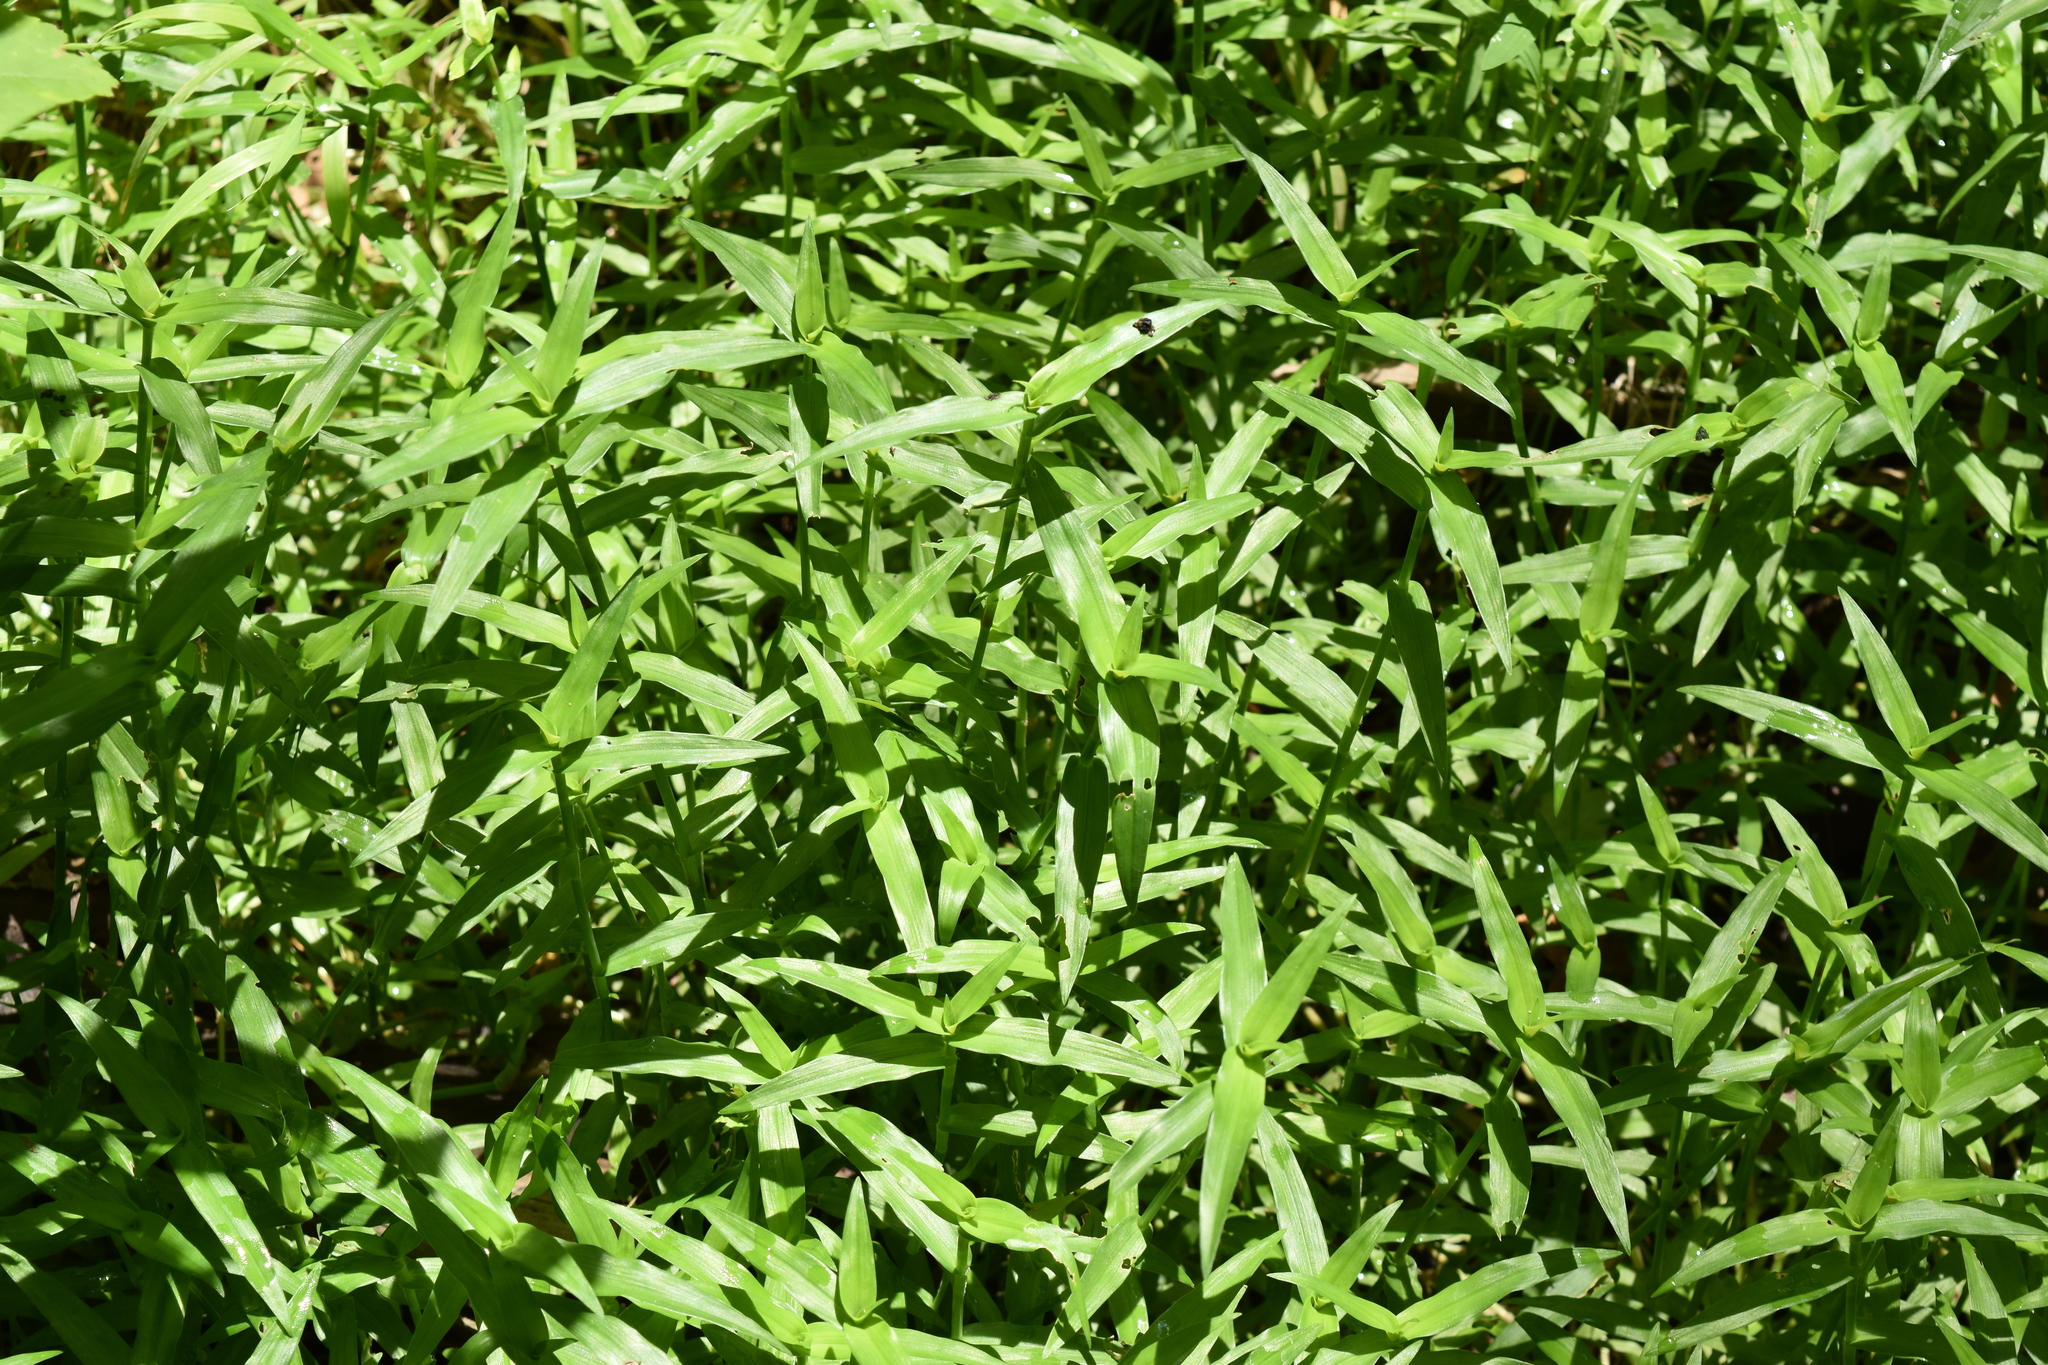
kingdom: Plantae
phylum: Tracheophyta
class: Liliopsida
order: Commelinales
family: Commelinaceae
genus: Murdannia
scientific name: Murdannia keisak
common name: Wartremoving herb
